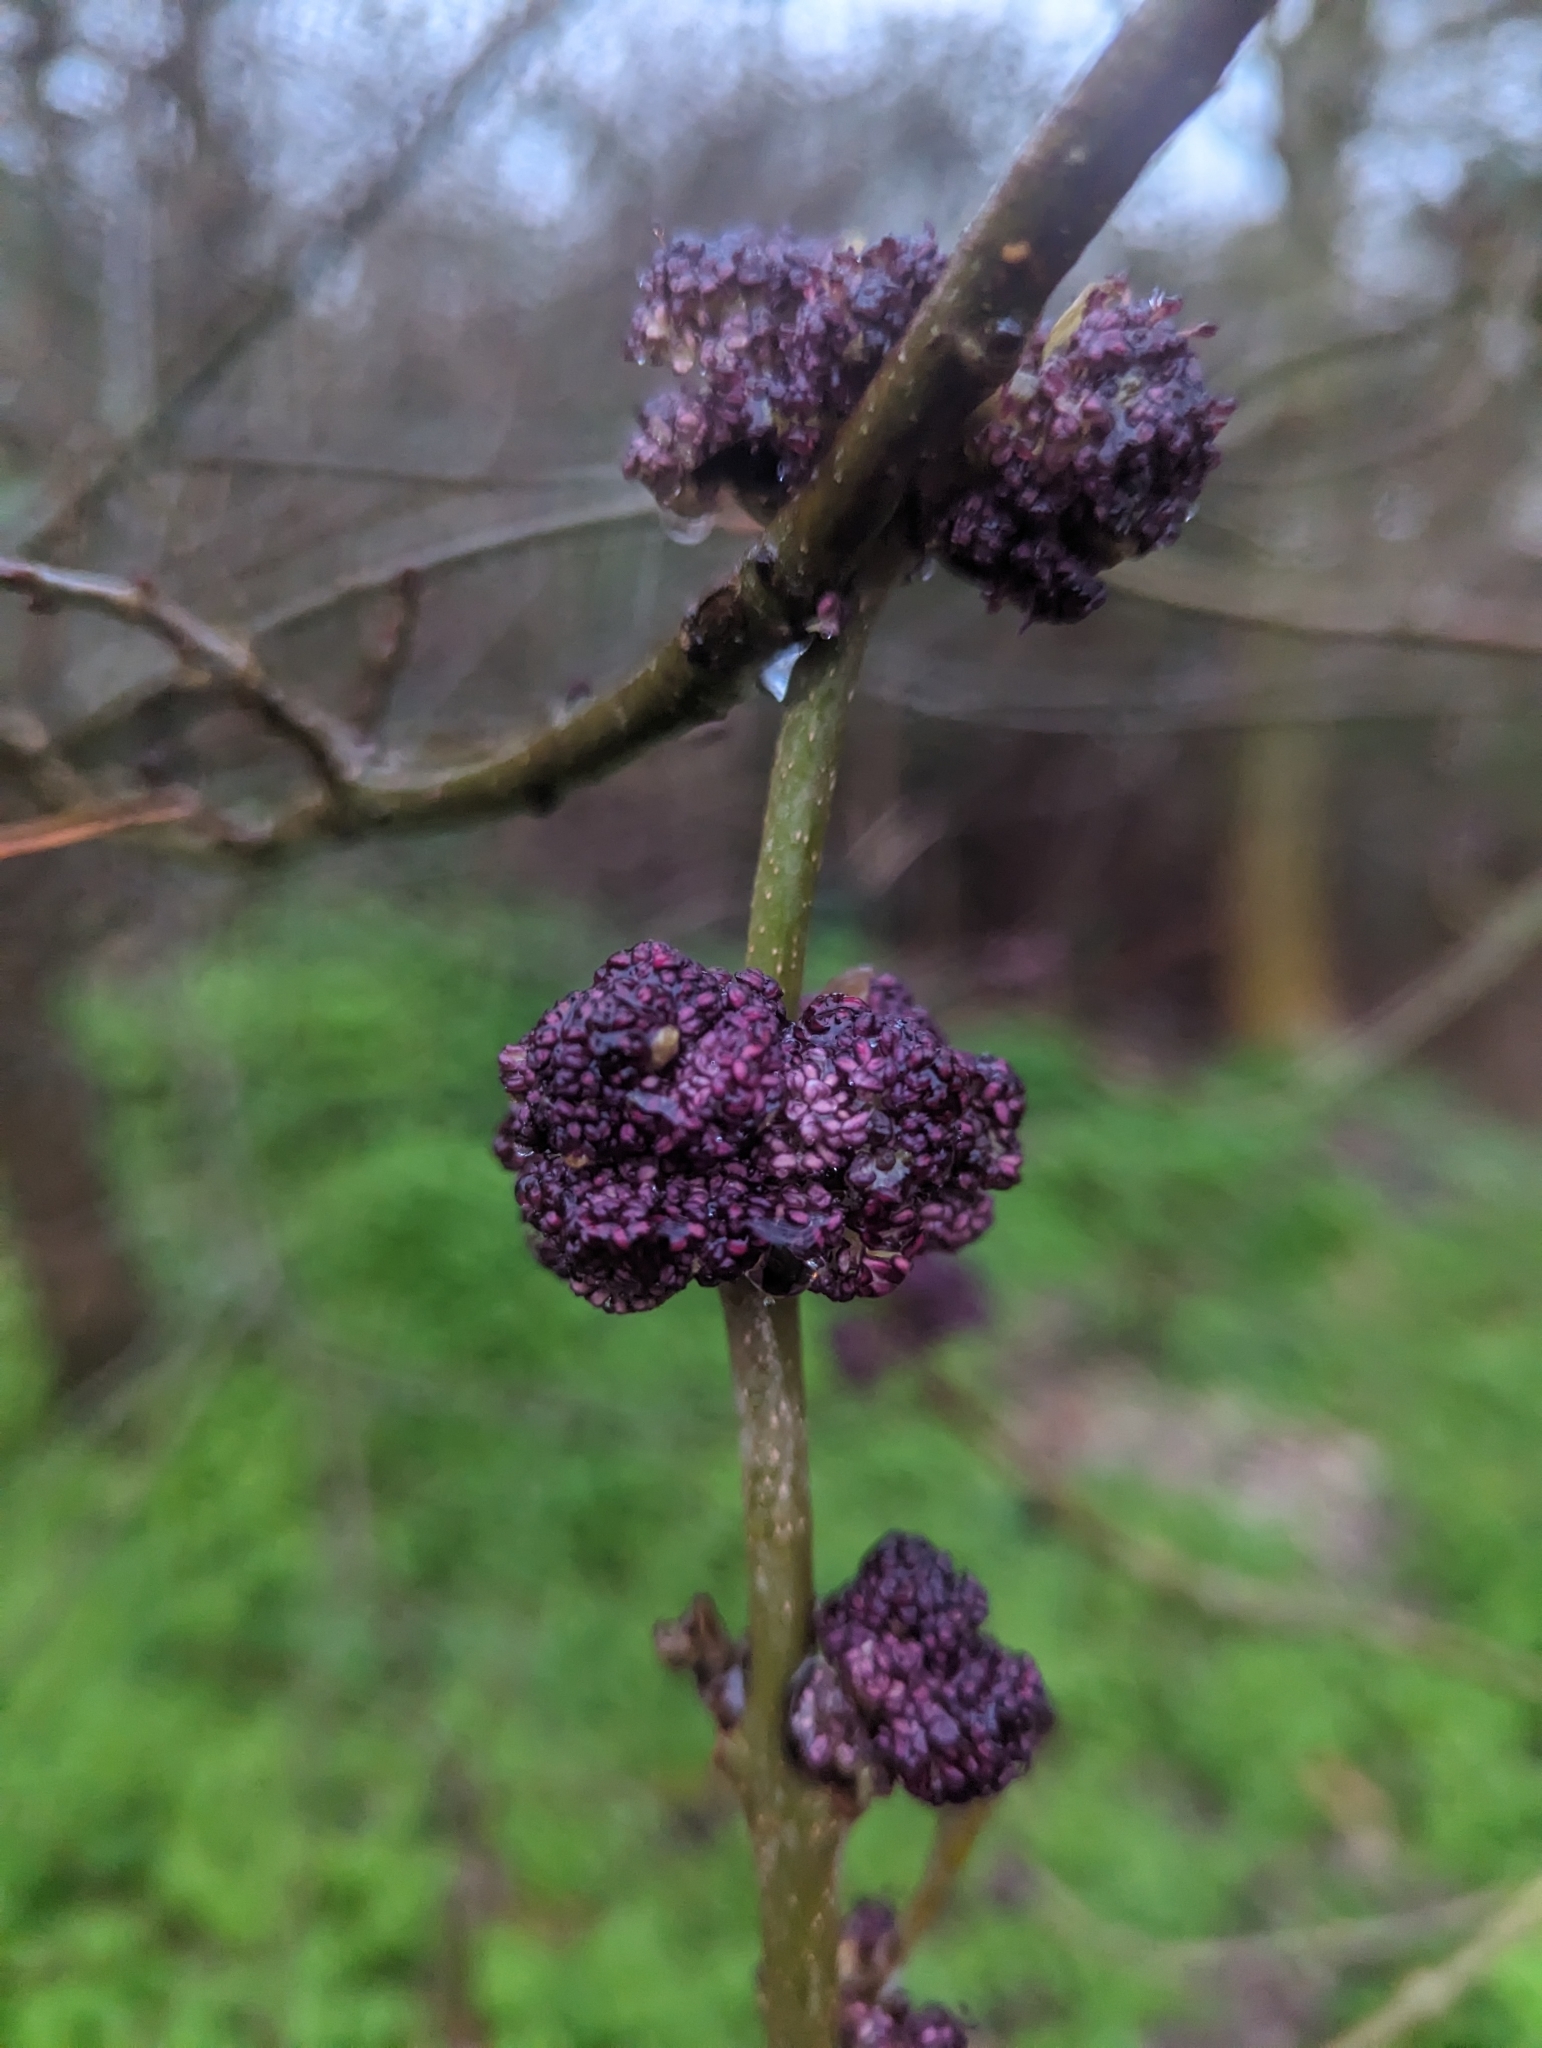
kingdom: Plantae
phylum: Tracheophyta
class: Magnoliopsida
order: Lamiales
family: Oleaceae
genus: Fraxinus
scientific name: Fraxinus excelsior
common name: European ash
